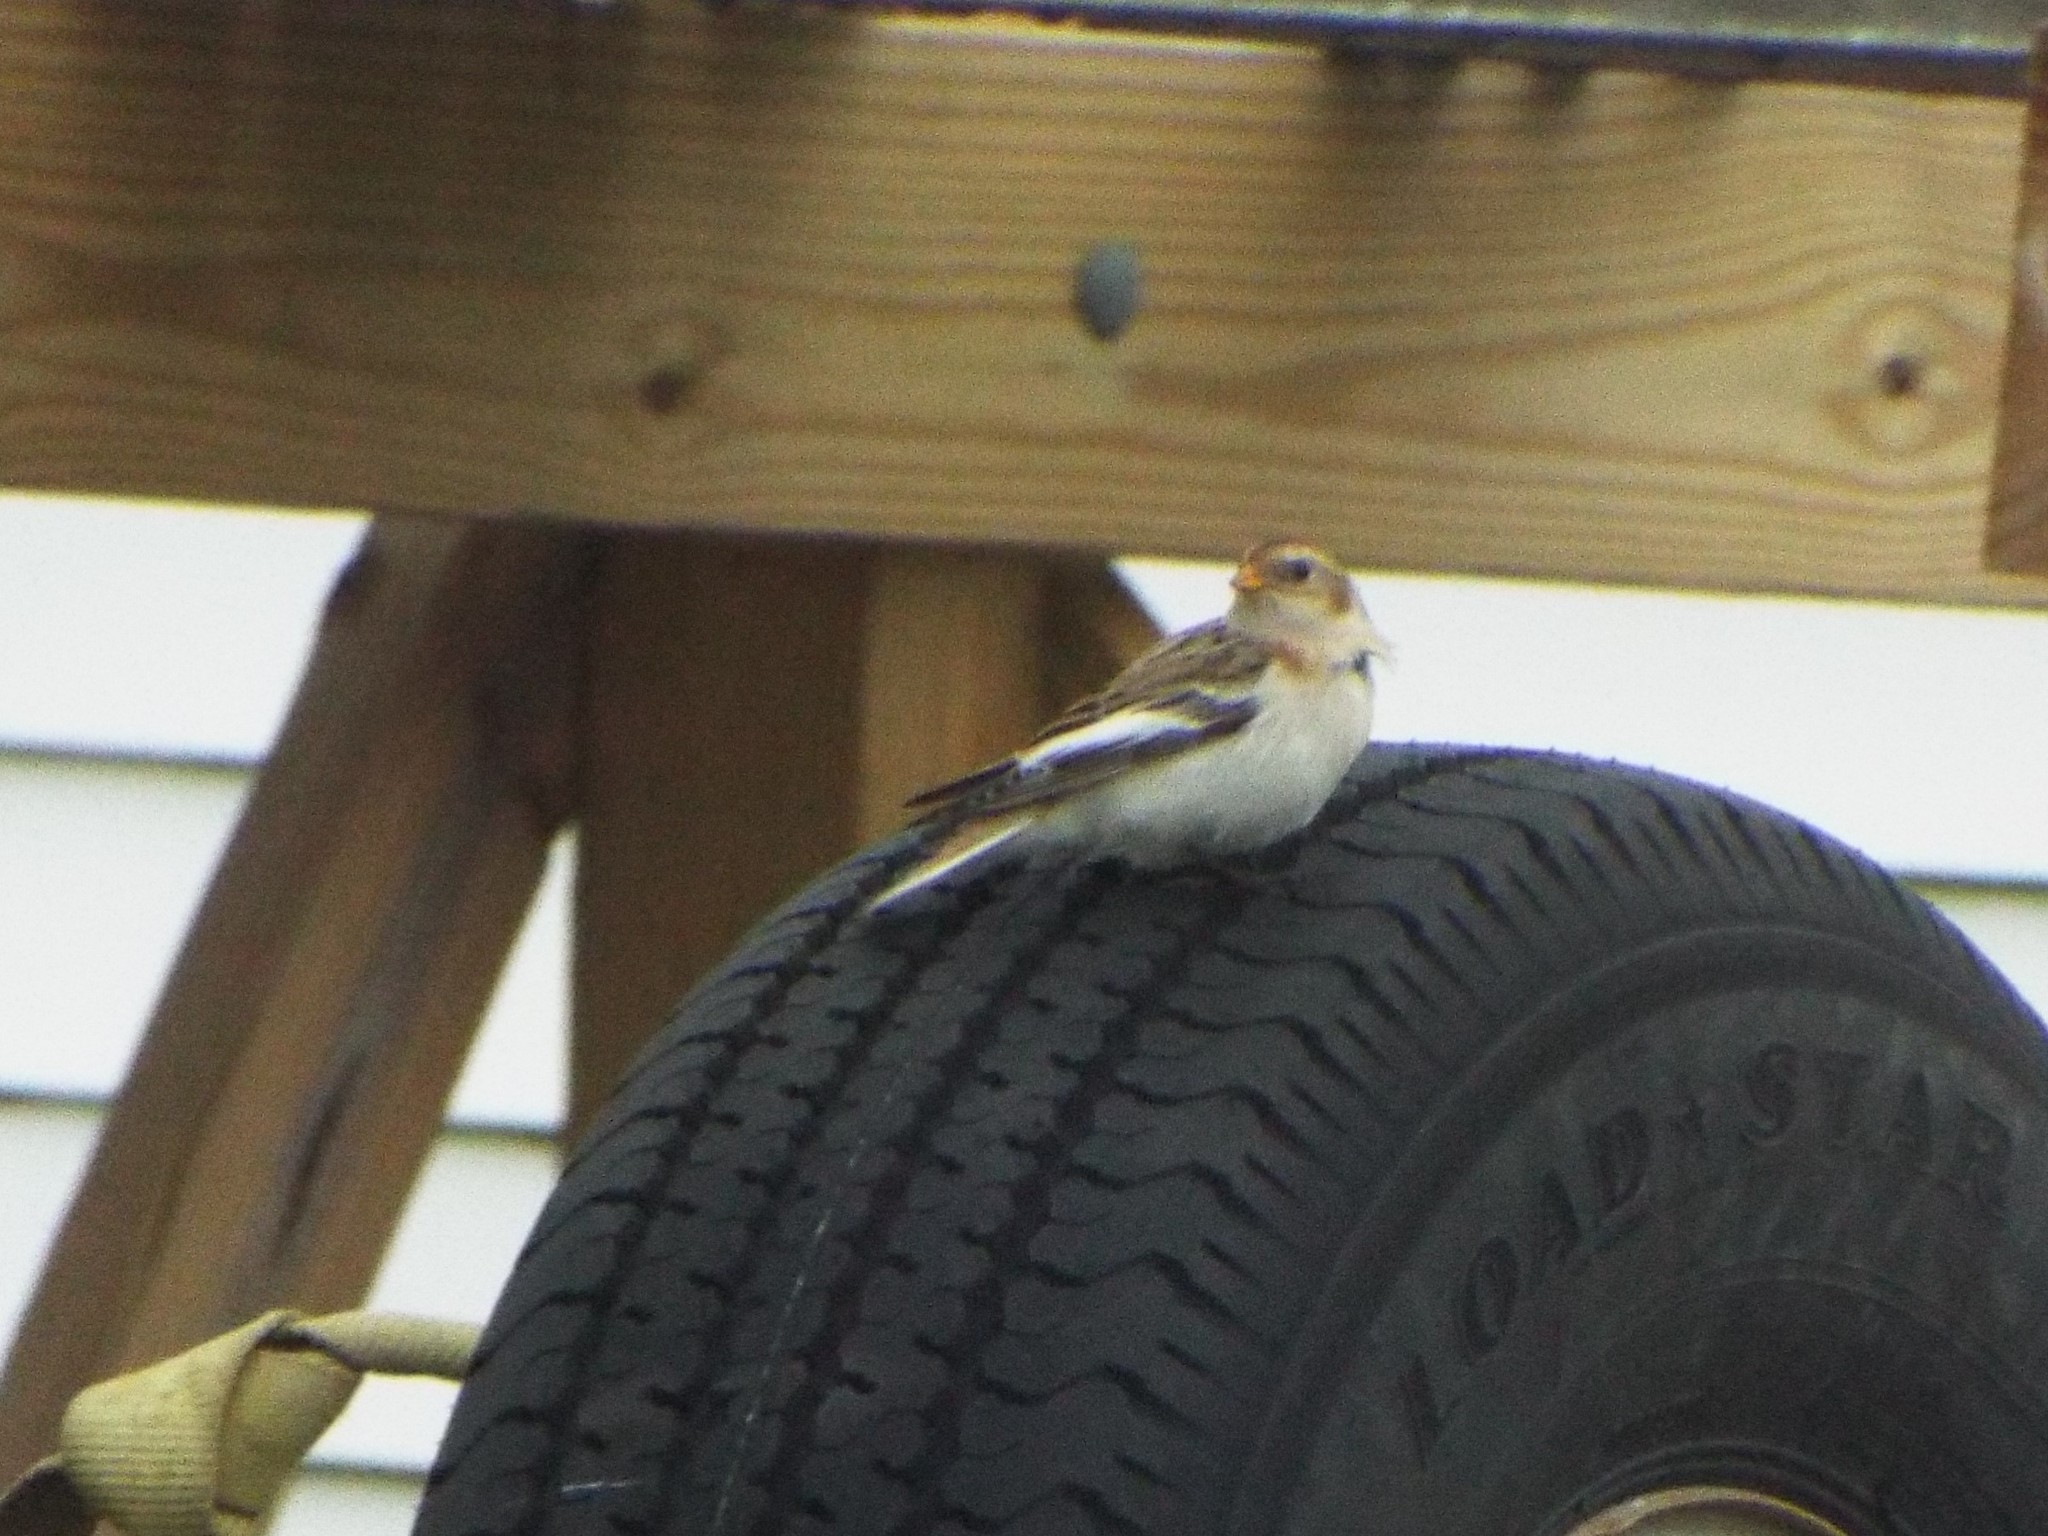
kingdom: Animalia
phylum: Chordata
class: Aves
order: Passeriformes
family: Calcariidae
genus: Plectrophenax
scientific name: Plectrophenax nivalis
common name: Snow bunting
